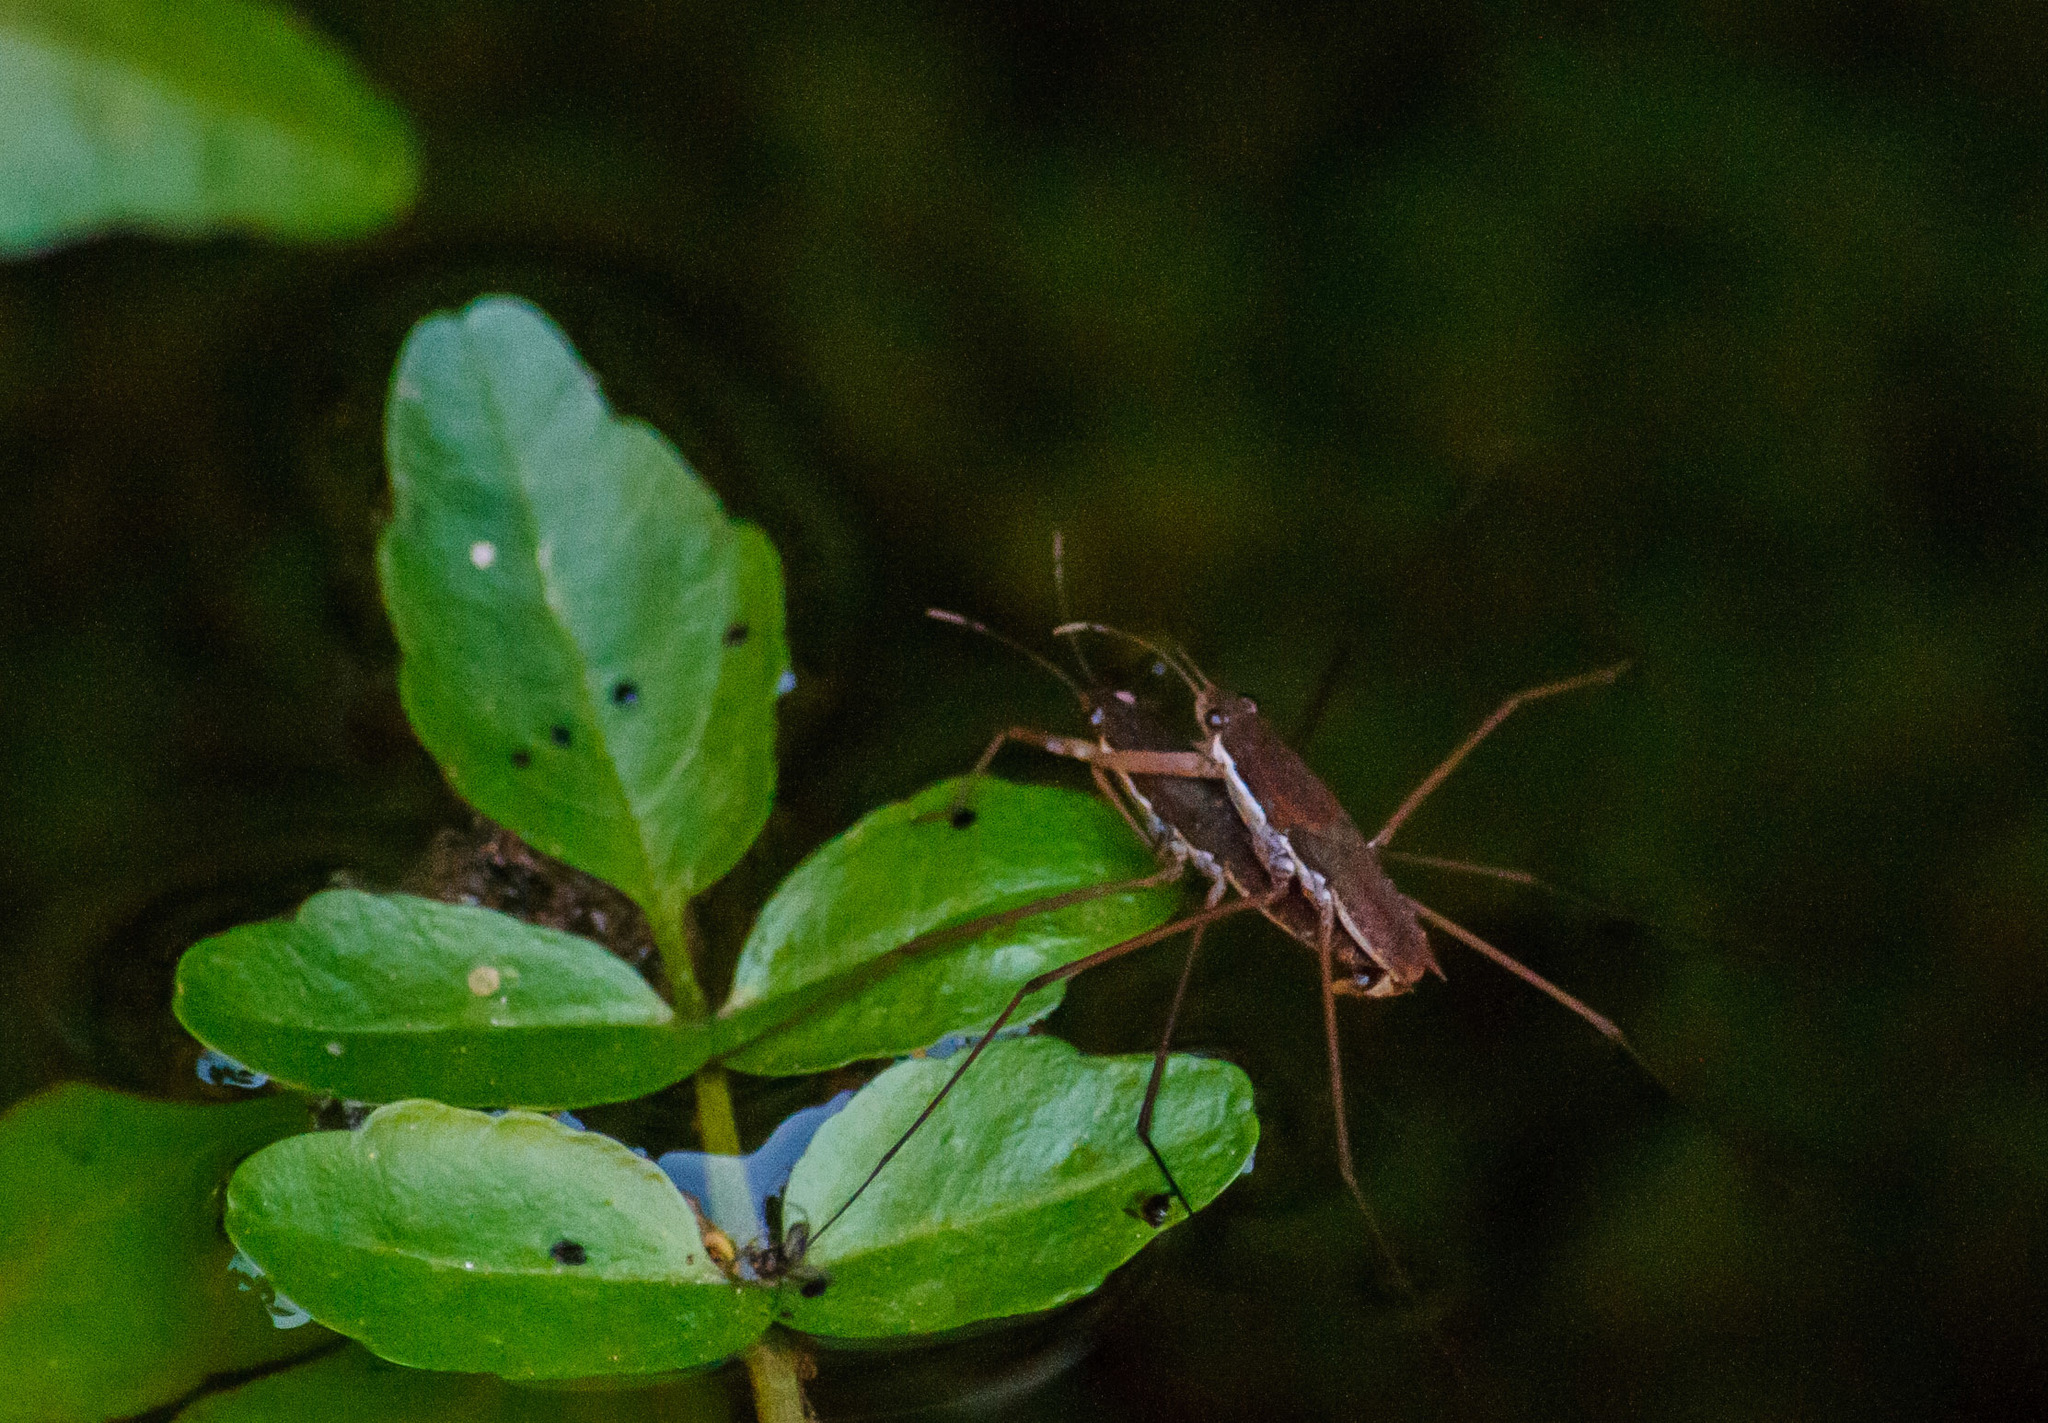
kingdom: Animalia
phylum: Arthropoda
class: Insecta
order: Hemiptera
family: Gerridae
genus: Aquarius
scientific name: Aquarius remigis
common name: Common water strider
